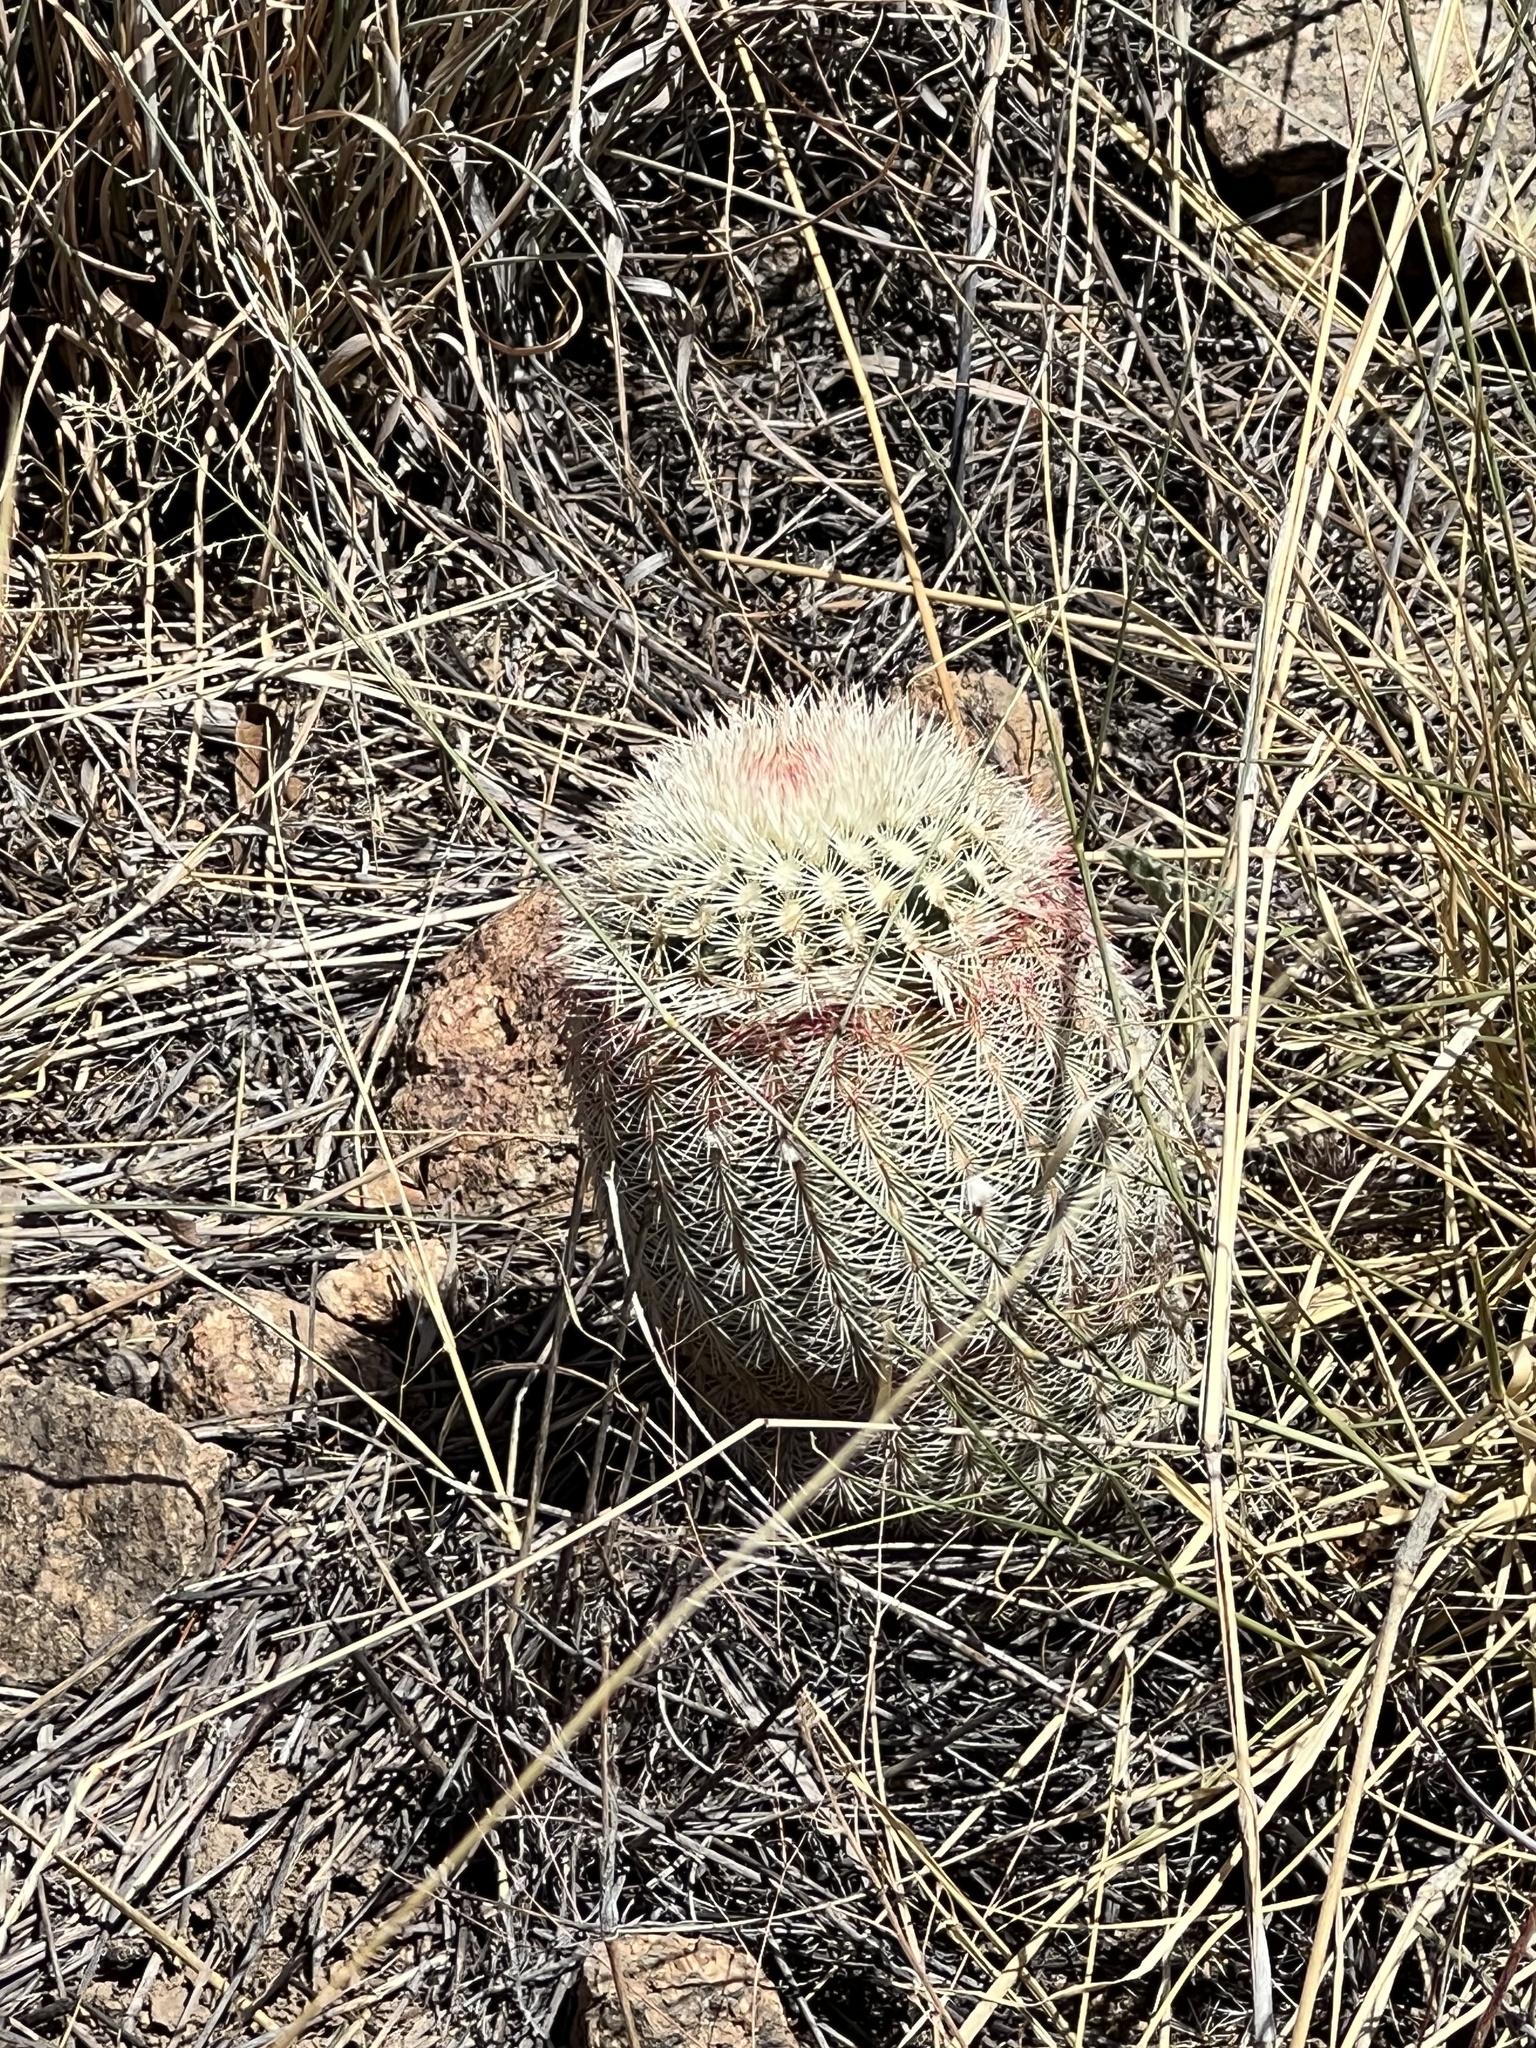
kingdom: Plantae
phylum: Tracheophyta
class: Magnoliopsida
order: Caryophyllales
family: Cactaceae
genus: Echinocereus
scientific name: Echinocereus rigidissimus
